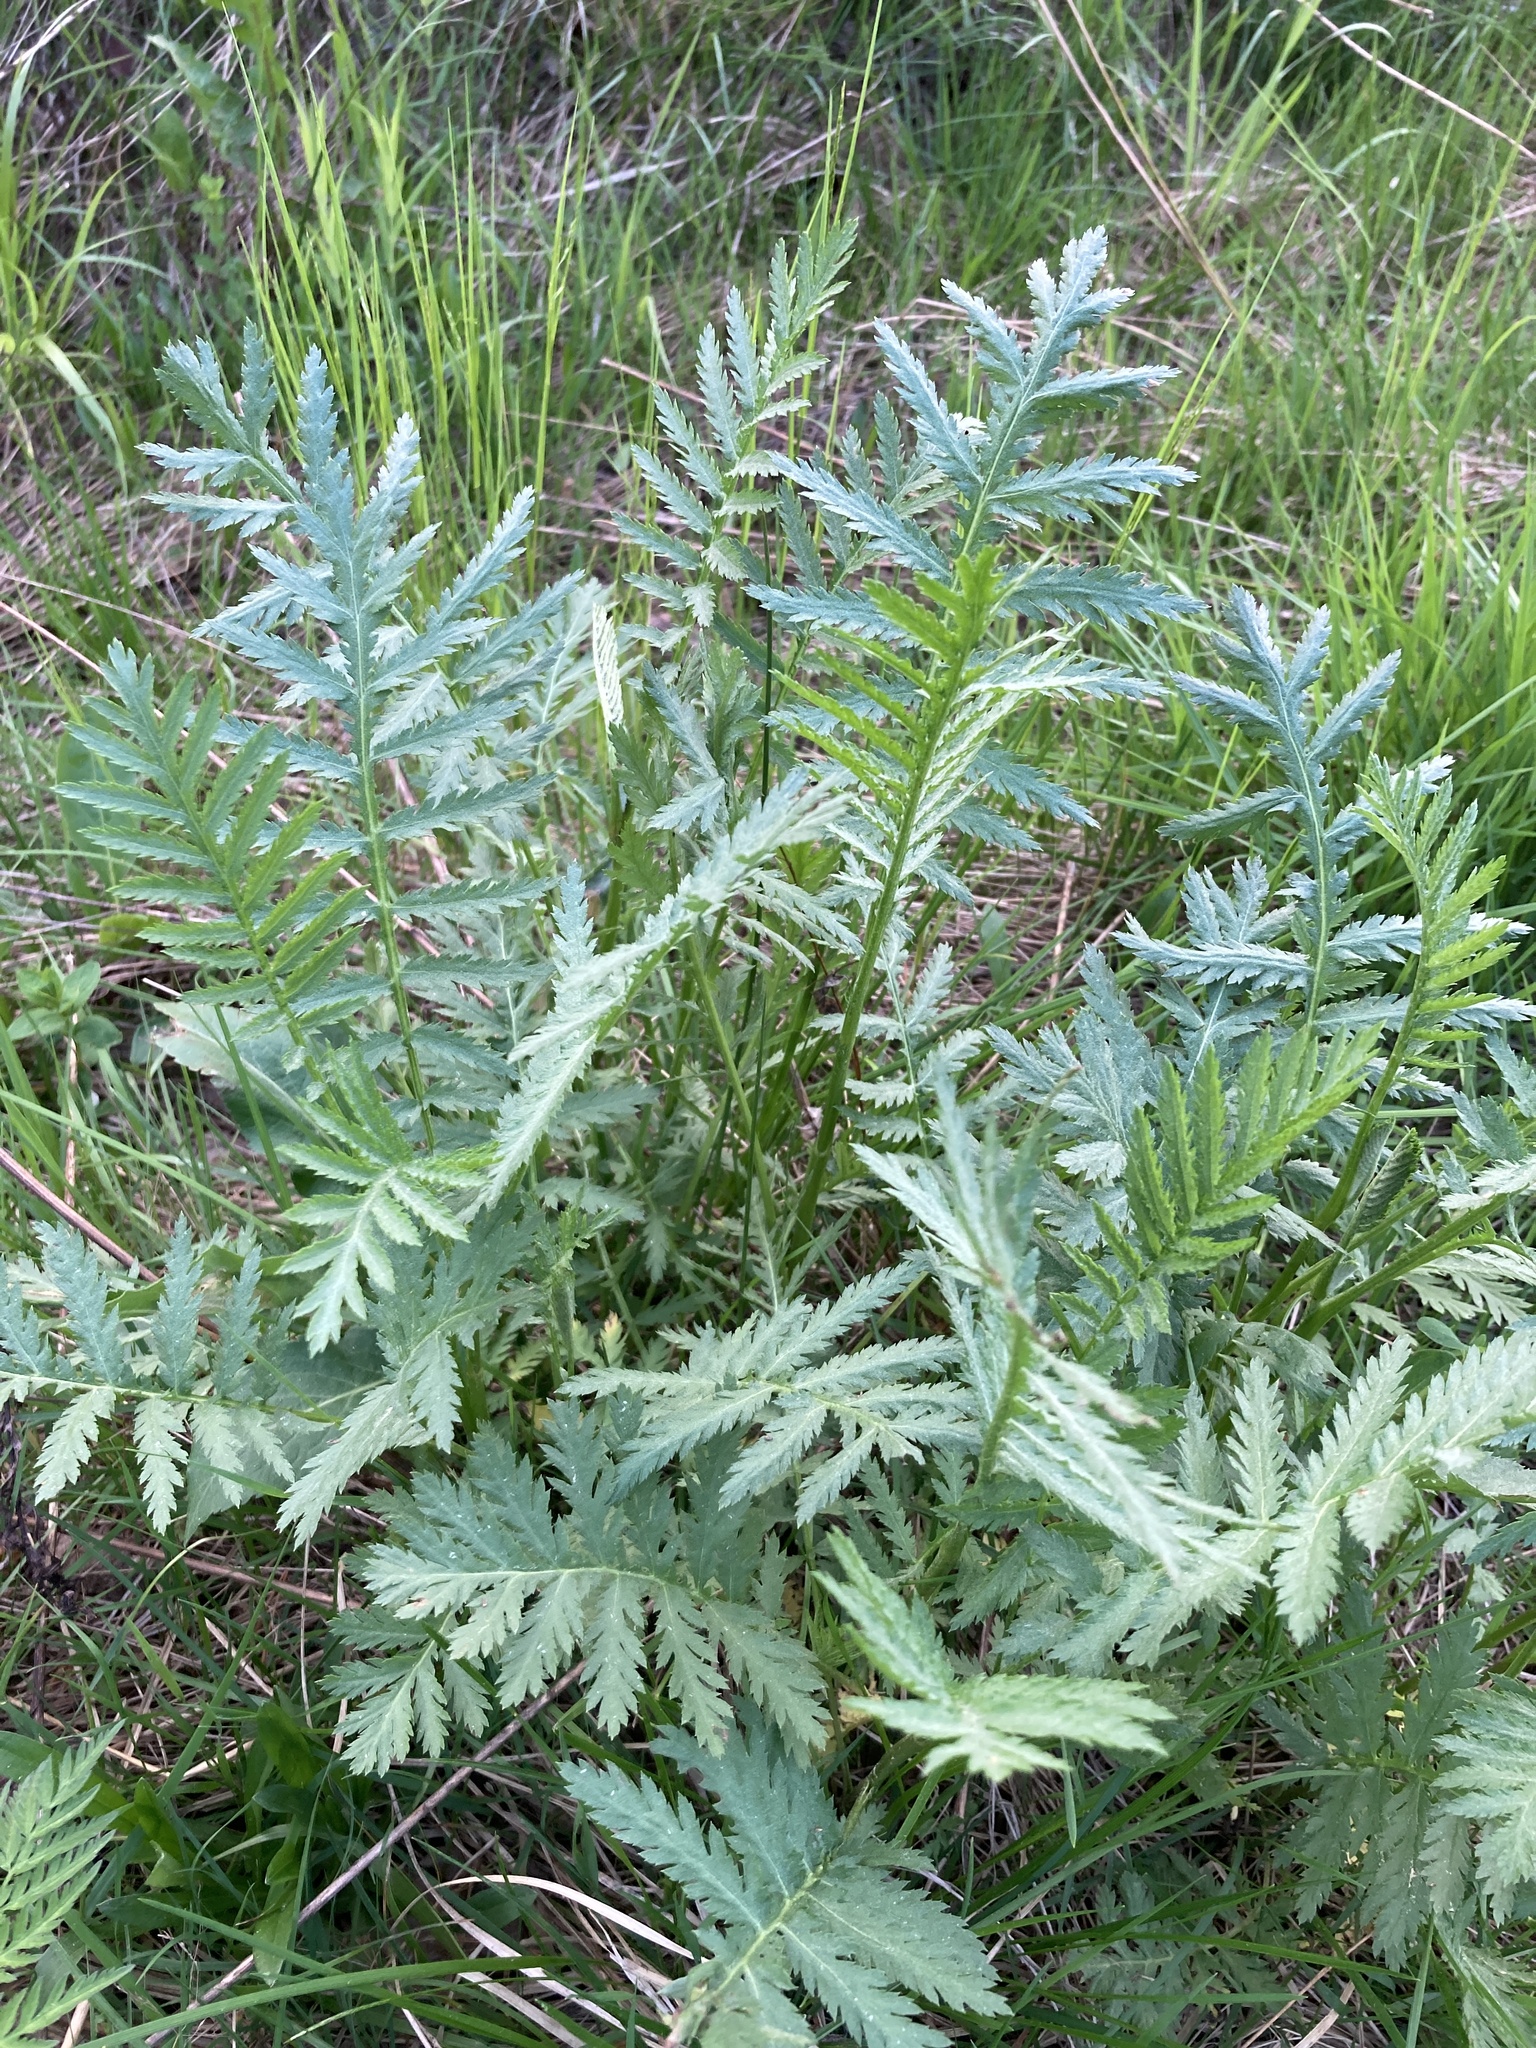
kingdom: Plantae
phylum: Tracheophyta
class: Magnoliopsida
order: Asterales
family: Asteraceae
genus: Tanacetum
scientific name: Tanacetum vulgare
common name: Common tansy
